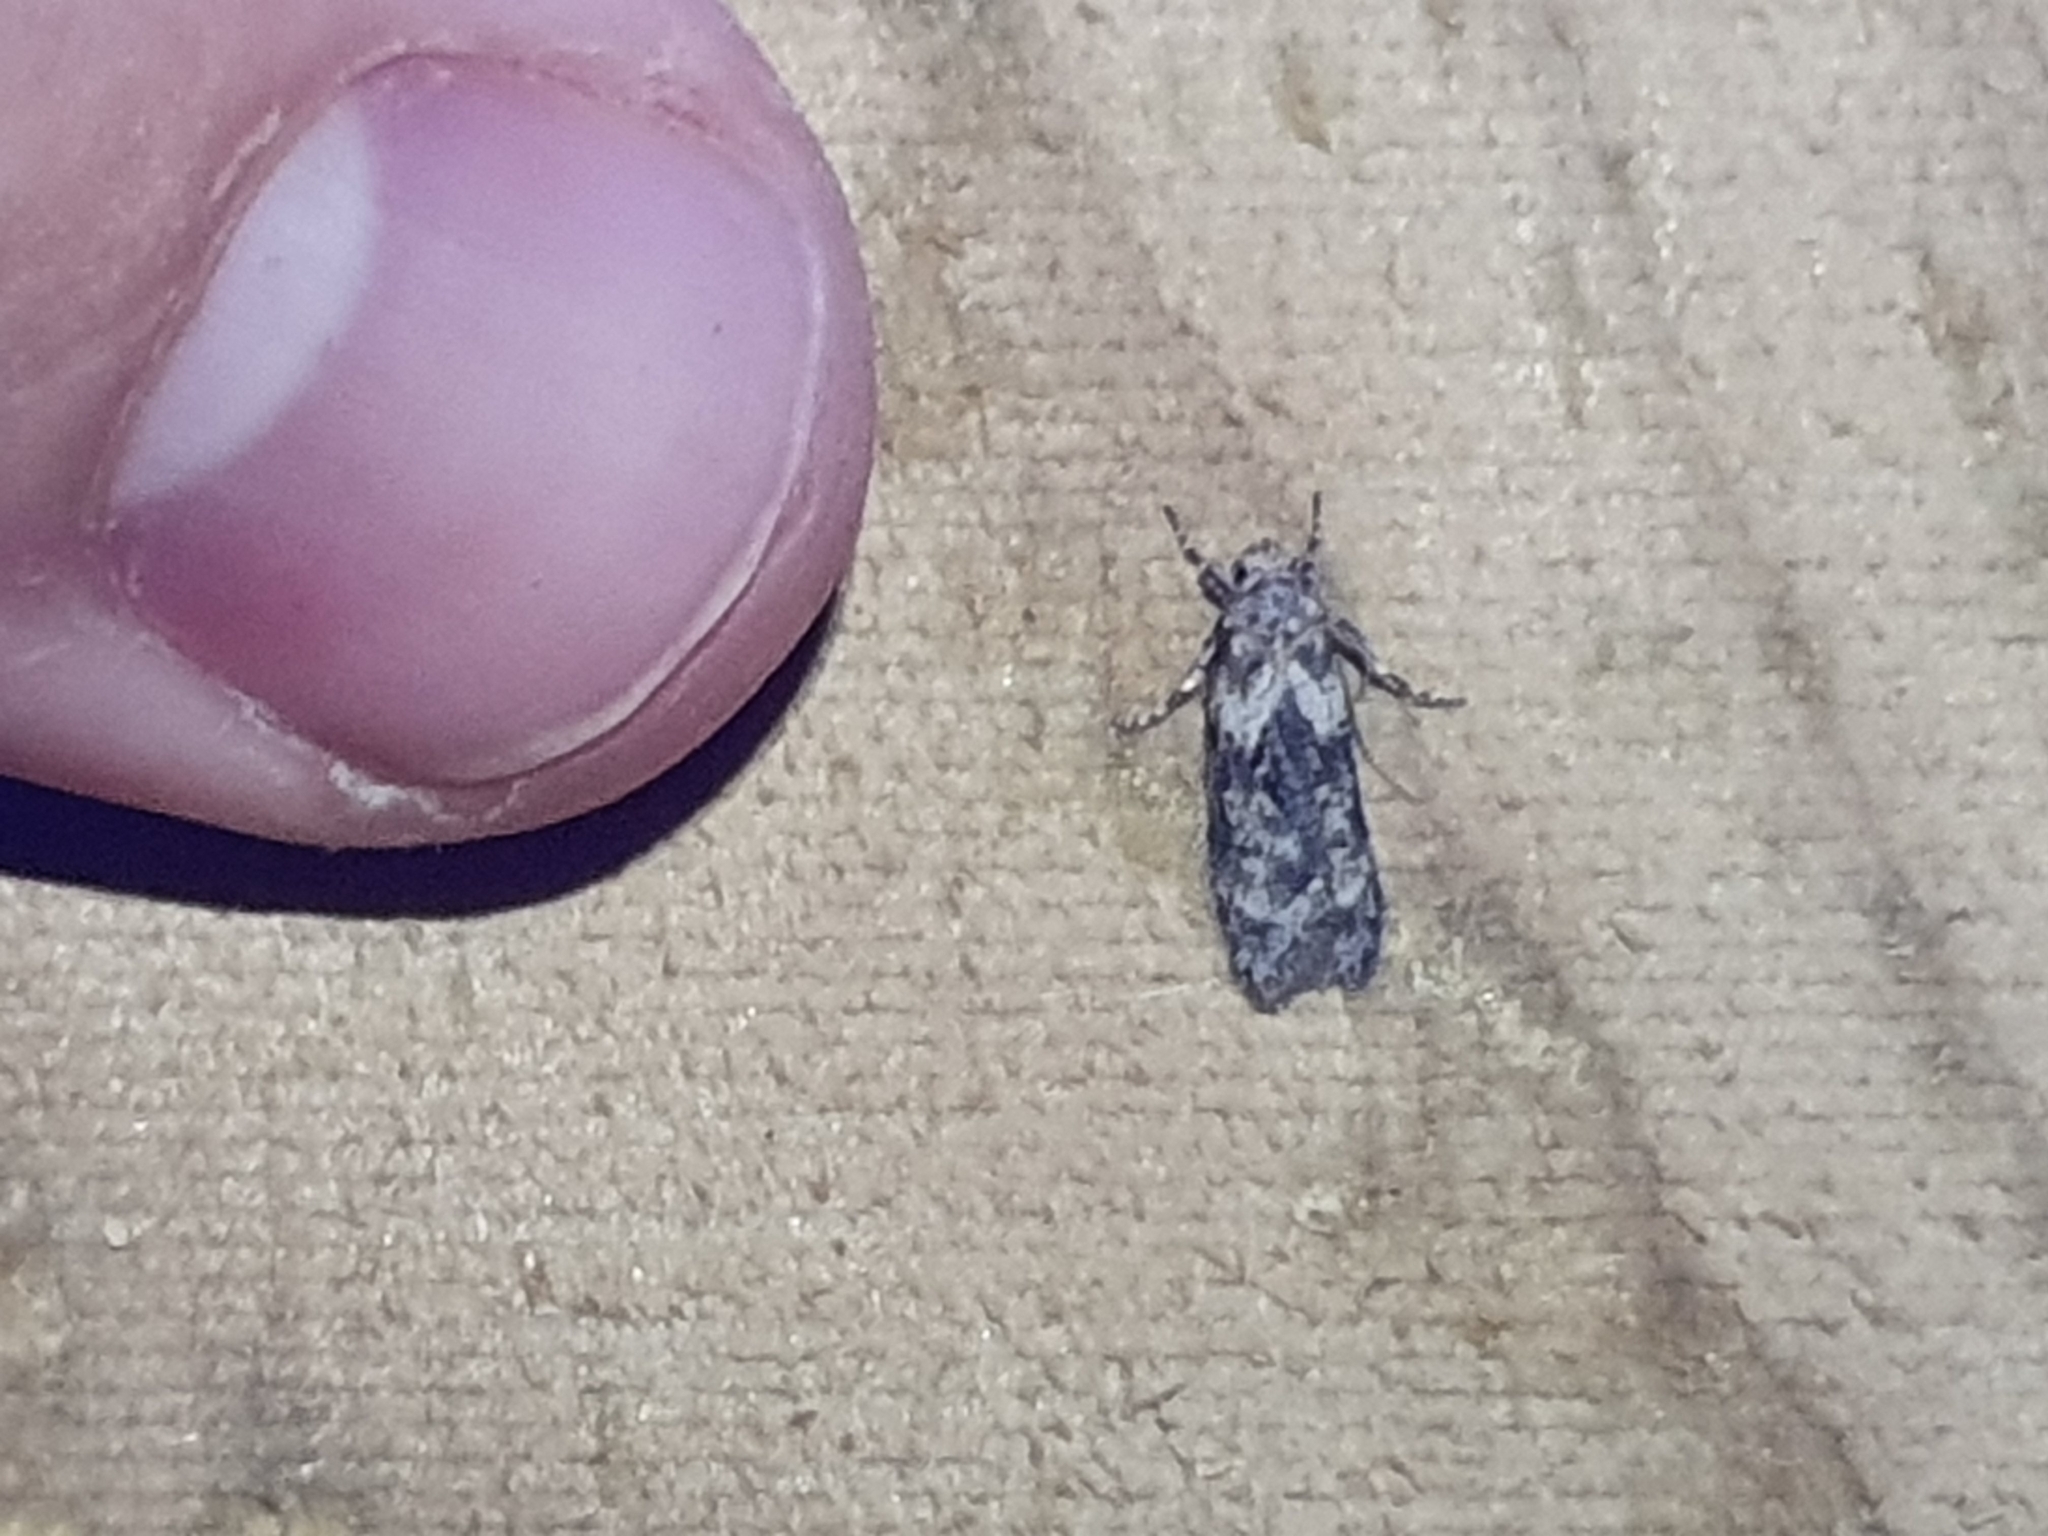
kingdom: Animalia
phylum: Arthropoda
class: Insecta
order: Lepidoptera
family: Oecophoridae
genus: Izatha
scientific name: Izatha convulsella
